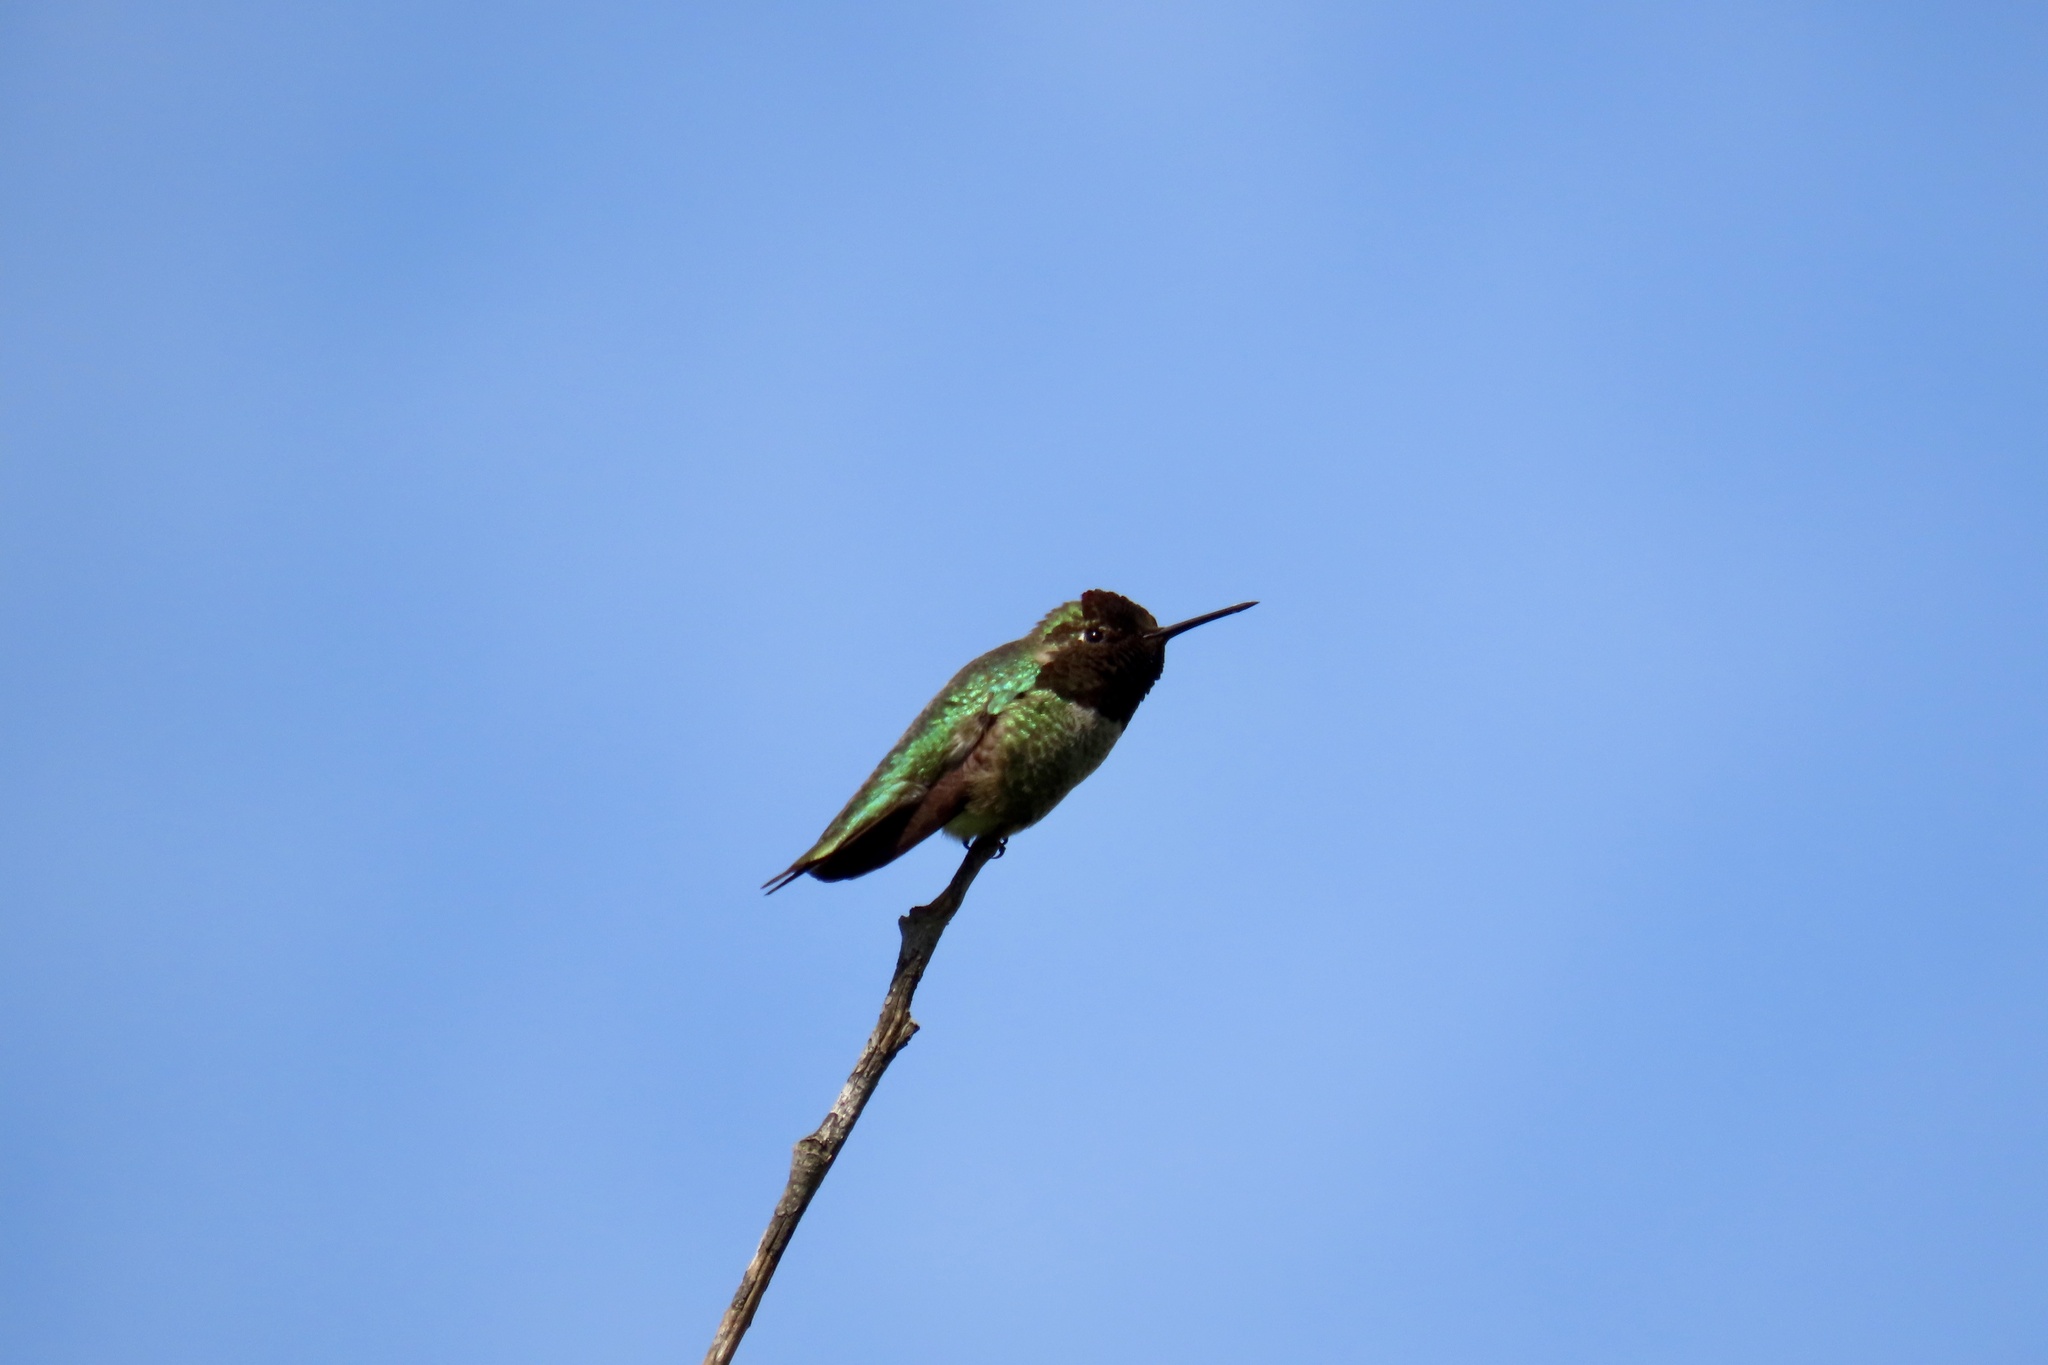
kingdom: Animalia
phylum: Chordata
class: Aves
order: Apodiformes
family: Trochilidae
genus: Calypte
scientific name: Calypte anna
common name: Anna's hummingbird
